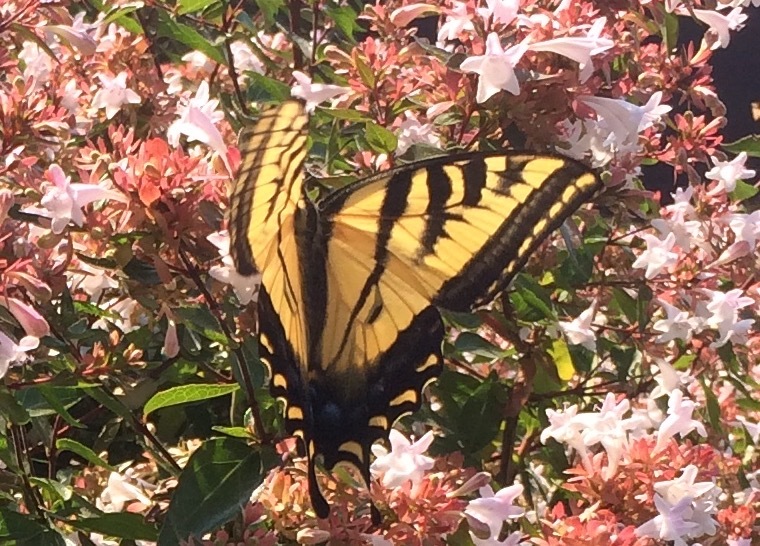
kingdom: Animalia
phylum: Arthropoda
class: Insecta
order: Lepidoptera
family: Papilionidae
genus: Papilio
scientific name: Papilio rutulus
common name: Western tiger swallowtail
